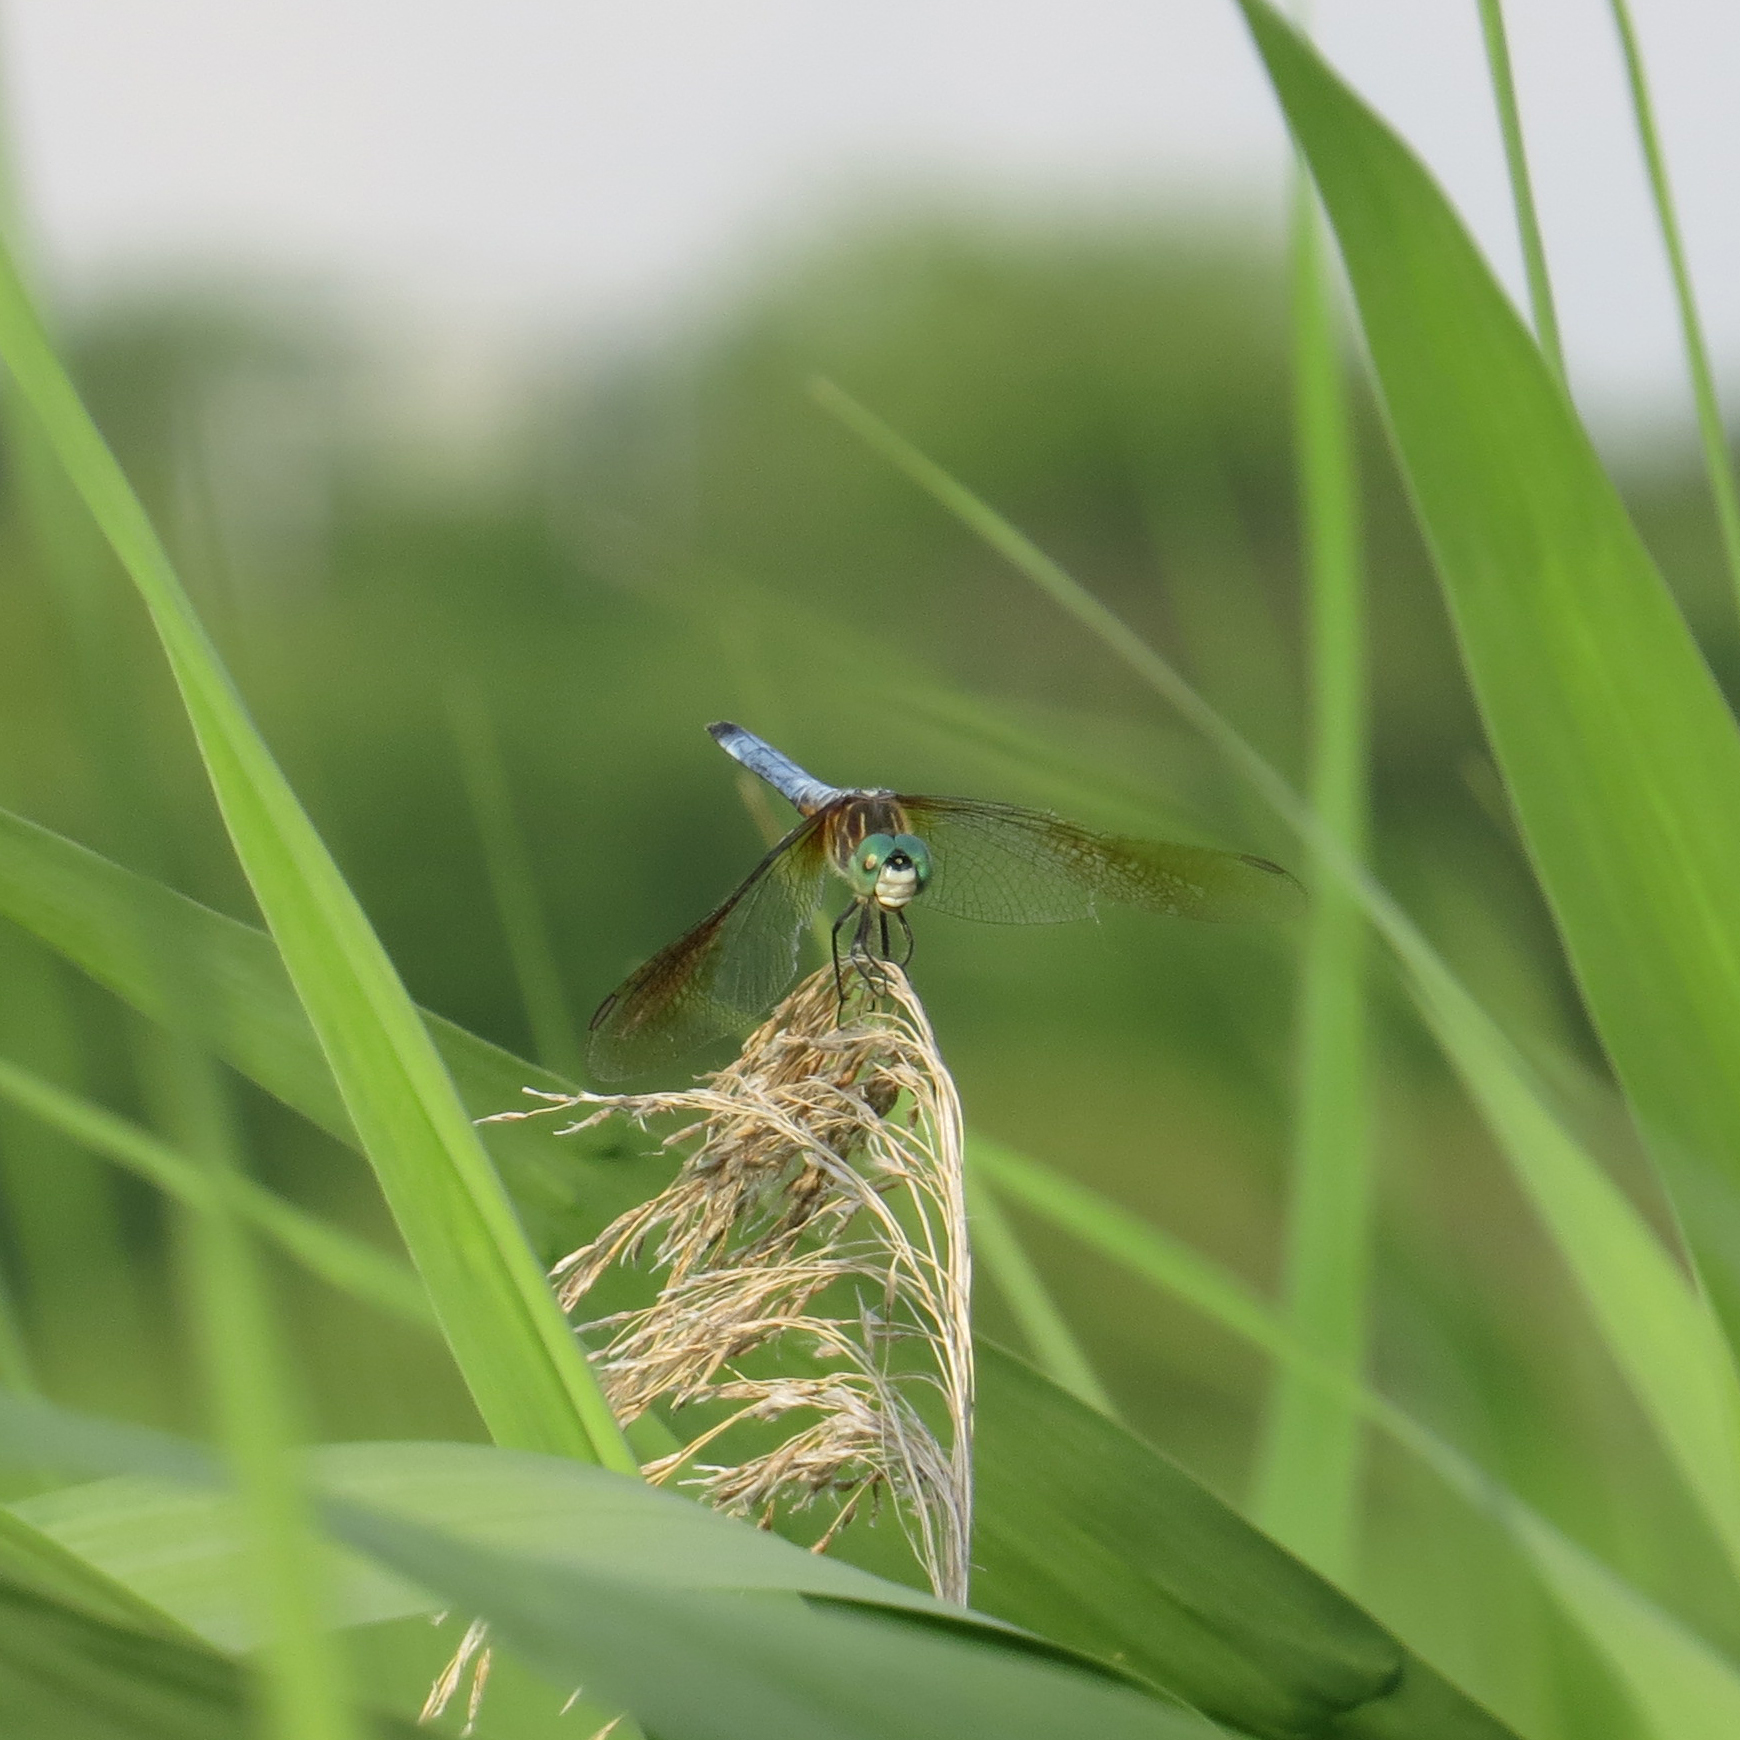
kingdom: Animalia
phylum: Arthropoda
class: Insecta
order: Odonata
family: Libellulidae
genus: Pachydiplax
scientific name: Pachydiplax longipennis
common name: Blue dasher
